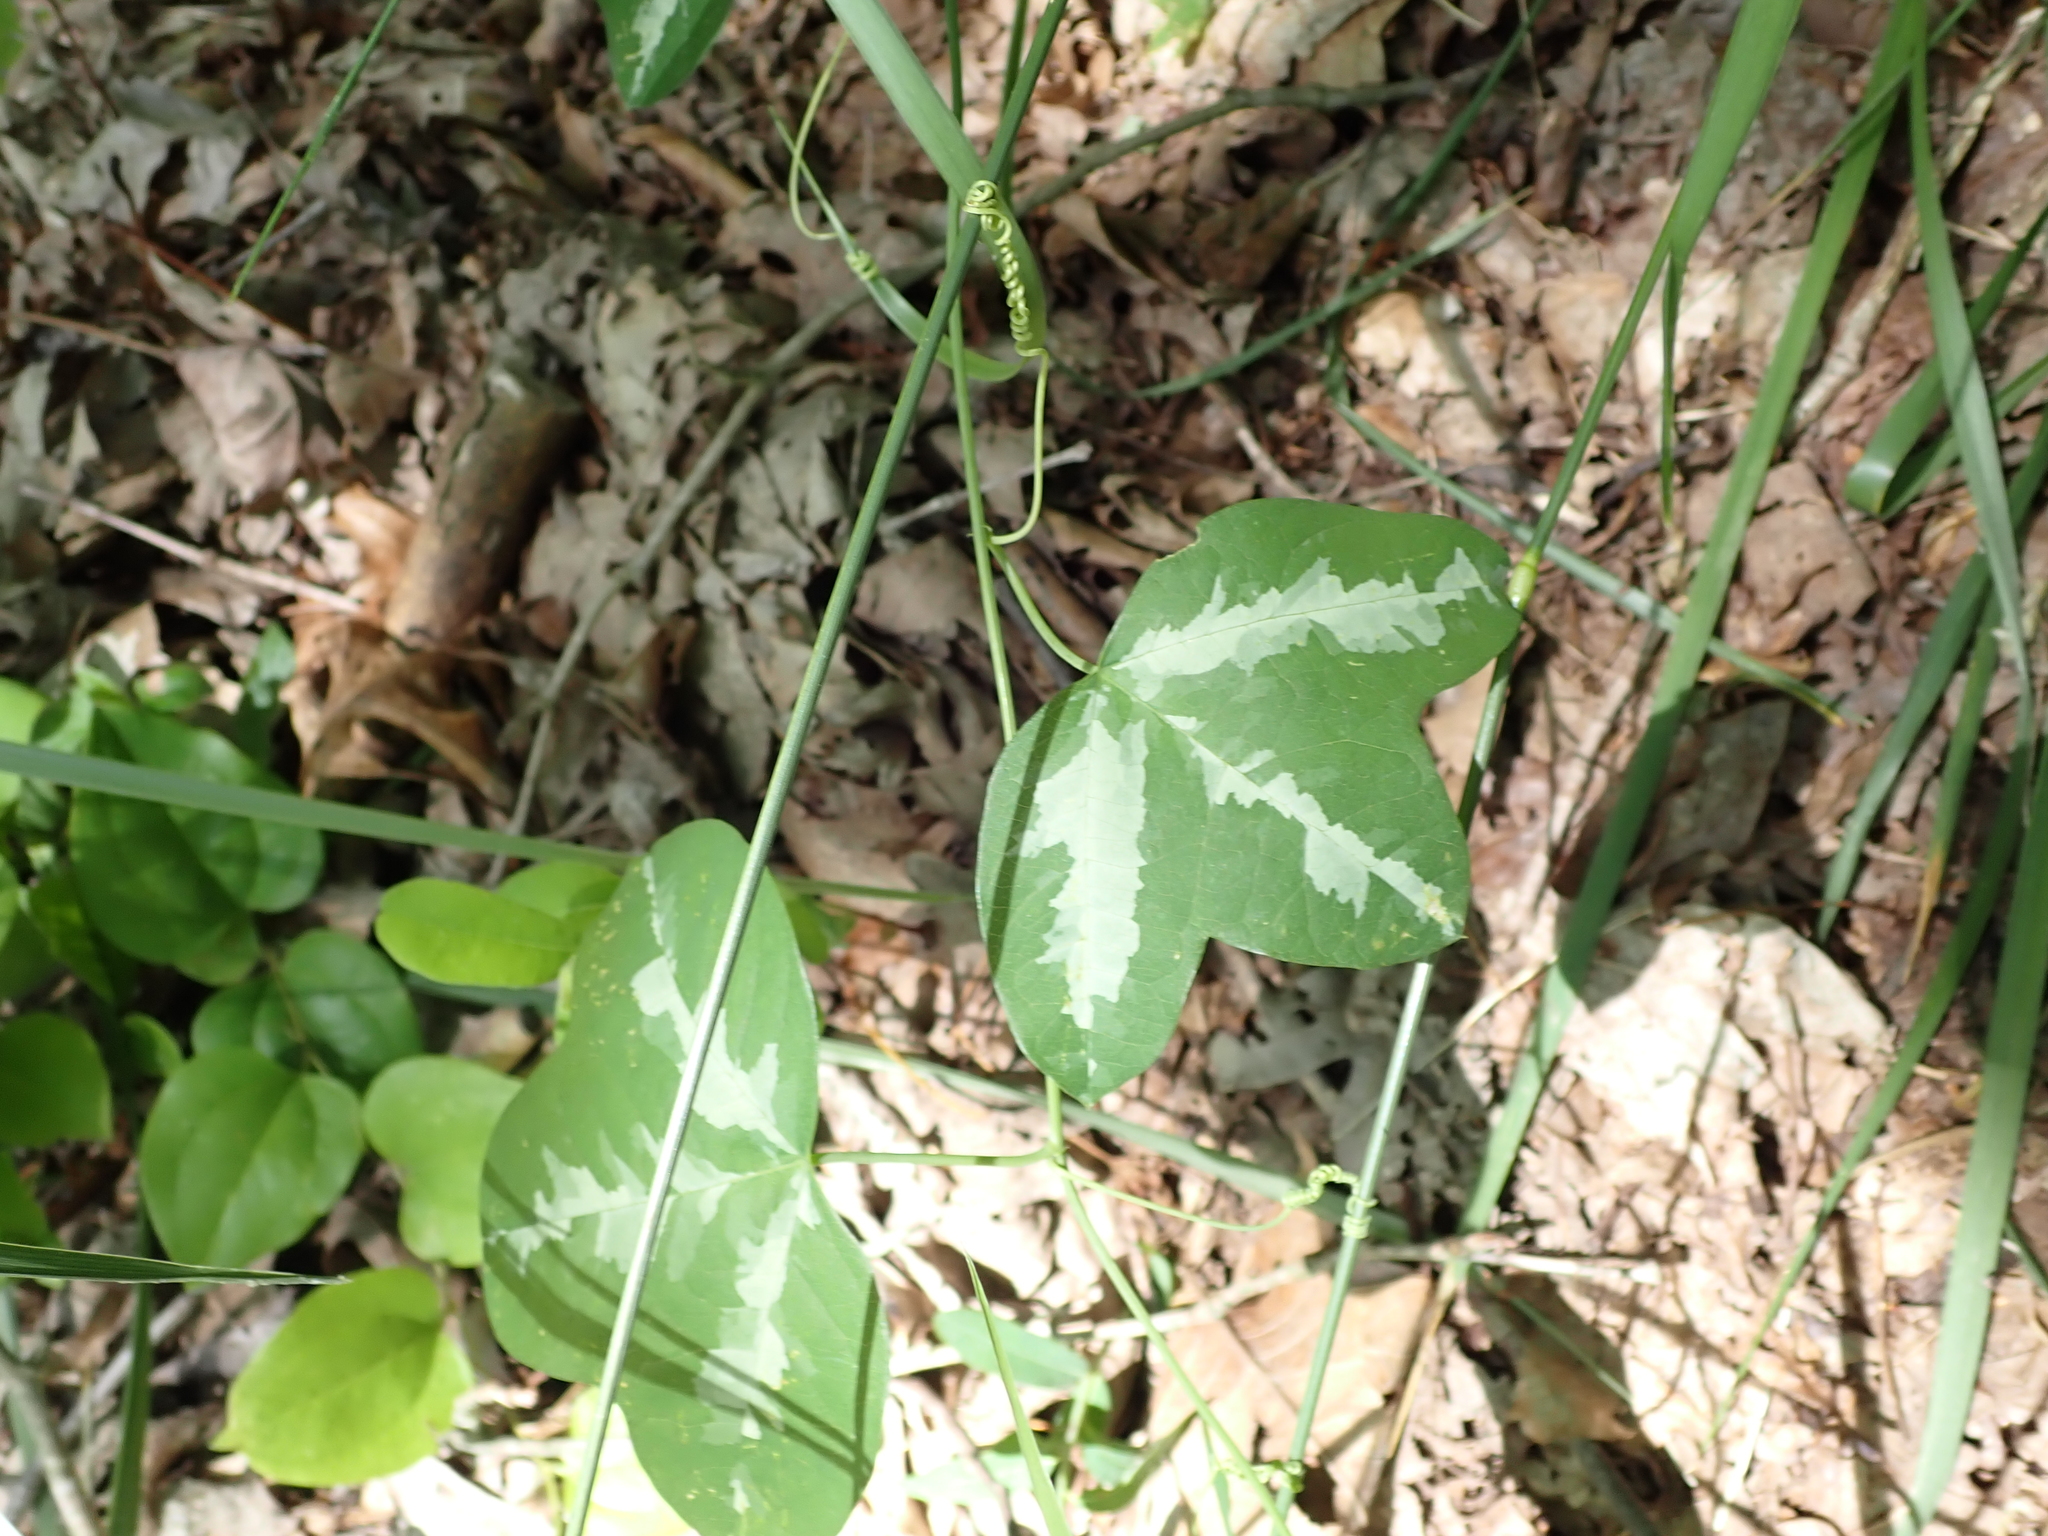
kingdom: Plantae
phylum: Tracheophyta
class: Magnoliopsida
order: Malpighiales
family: Passifloraceae
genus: Passiflora
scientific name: Passiflora lutea
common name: Yellow passionflower
